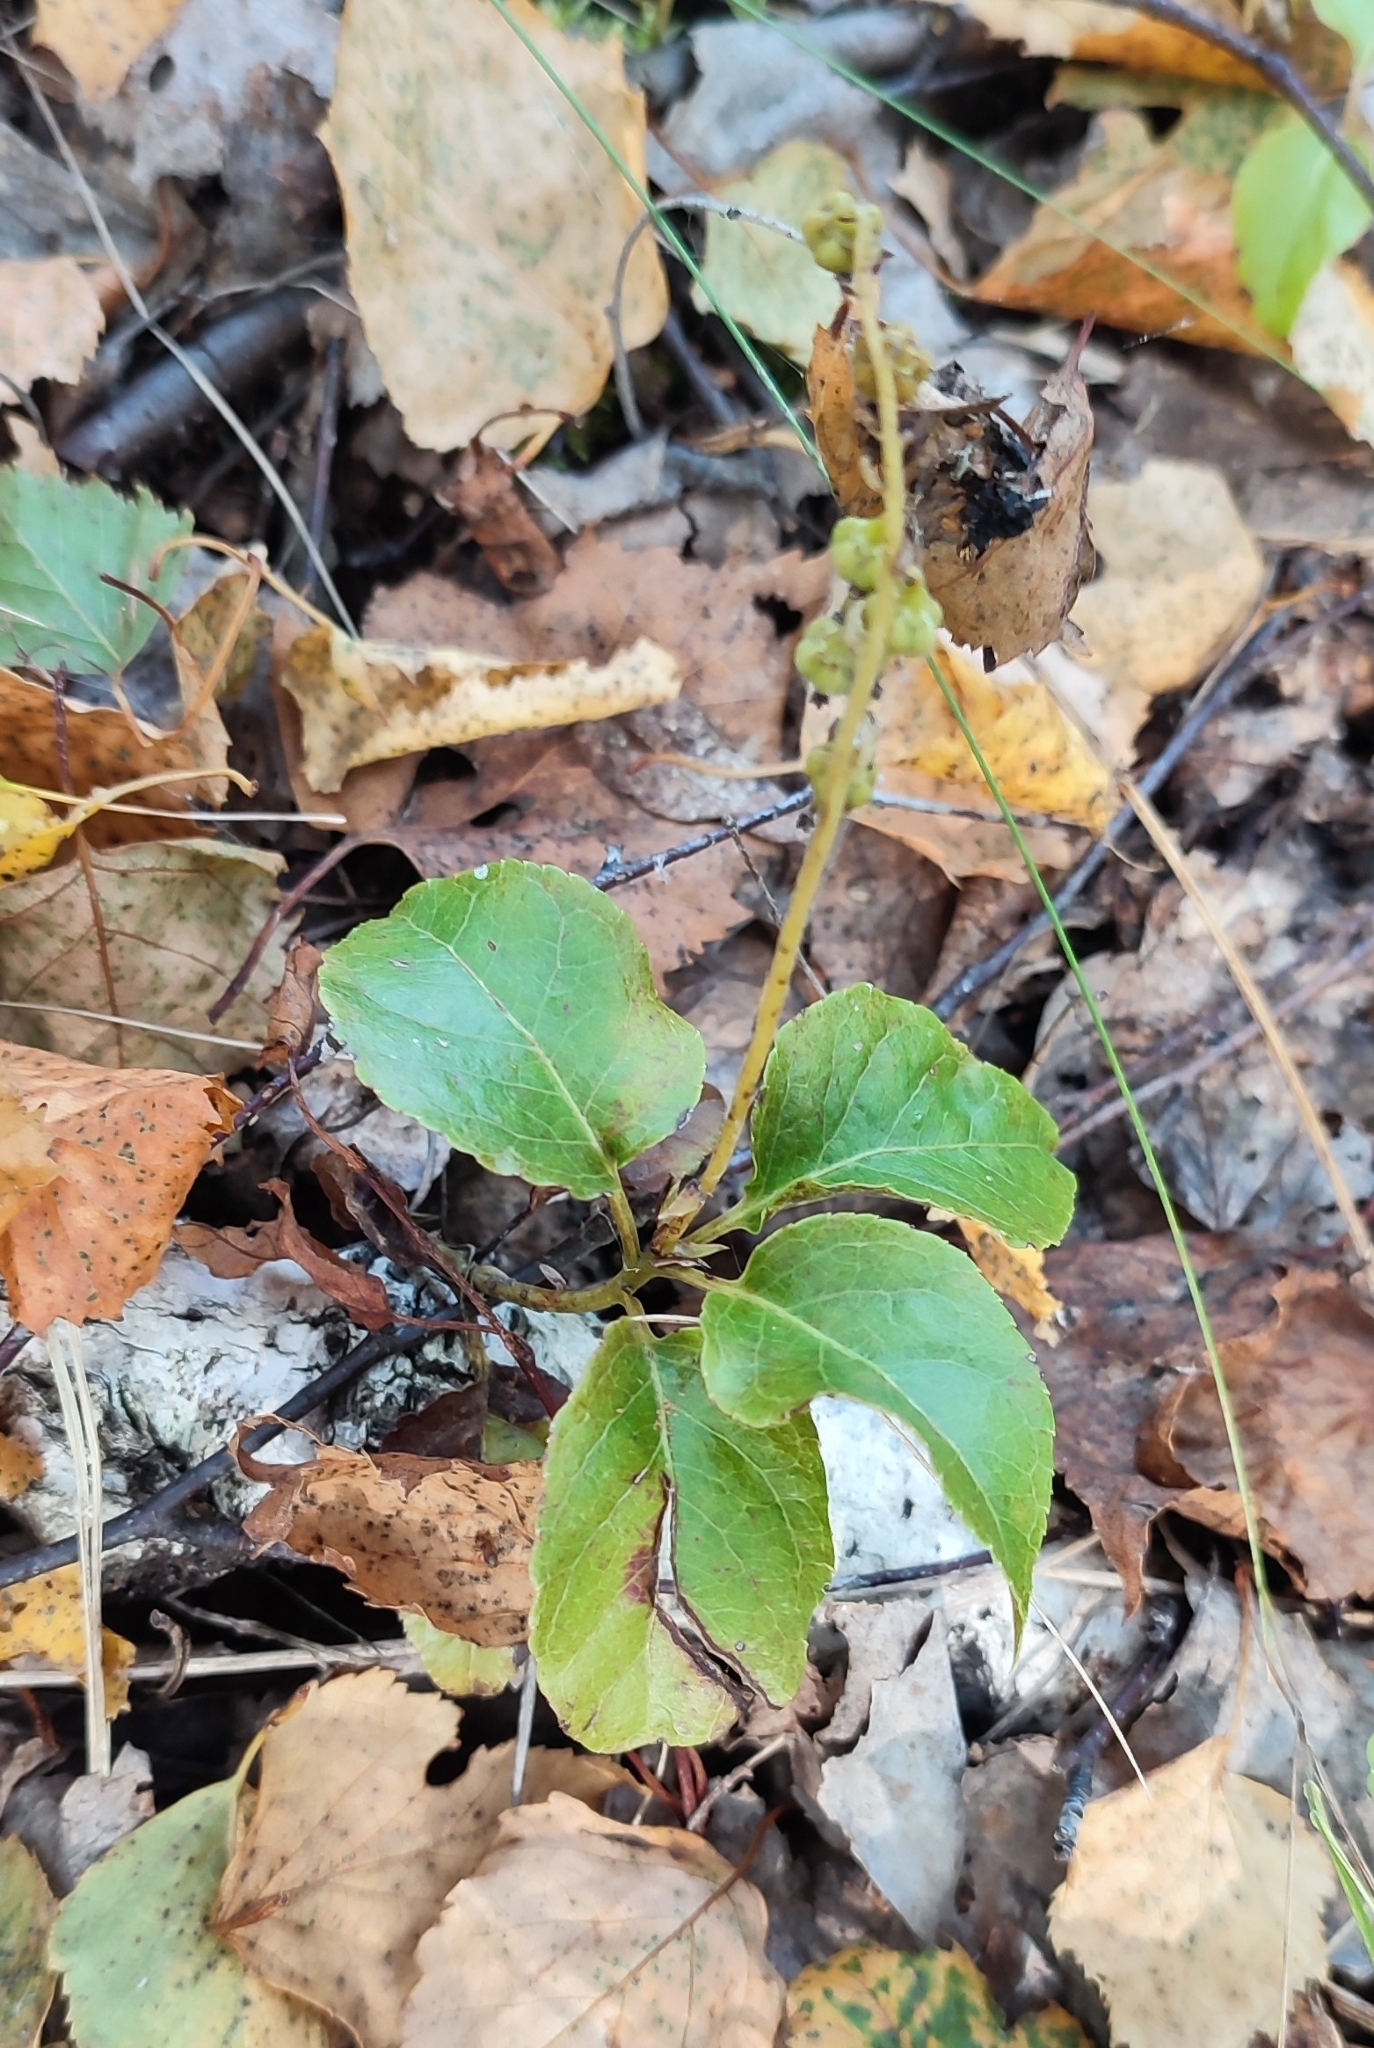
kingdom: Plantae
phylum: Tracheophyta
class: Magnoliopsida
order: Ericales
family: Ericaceae
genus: Orthilia
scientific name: Orthilia secunda
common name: One-sided orthilia
